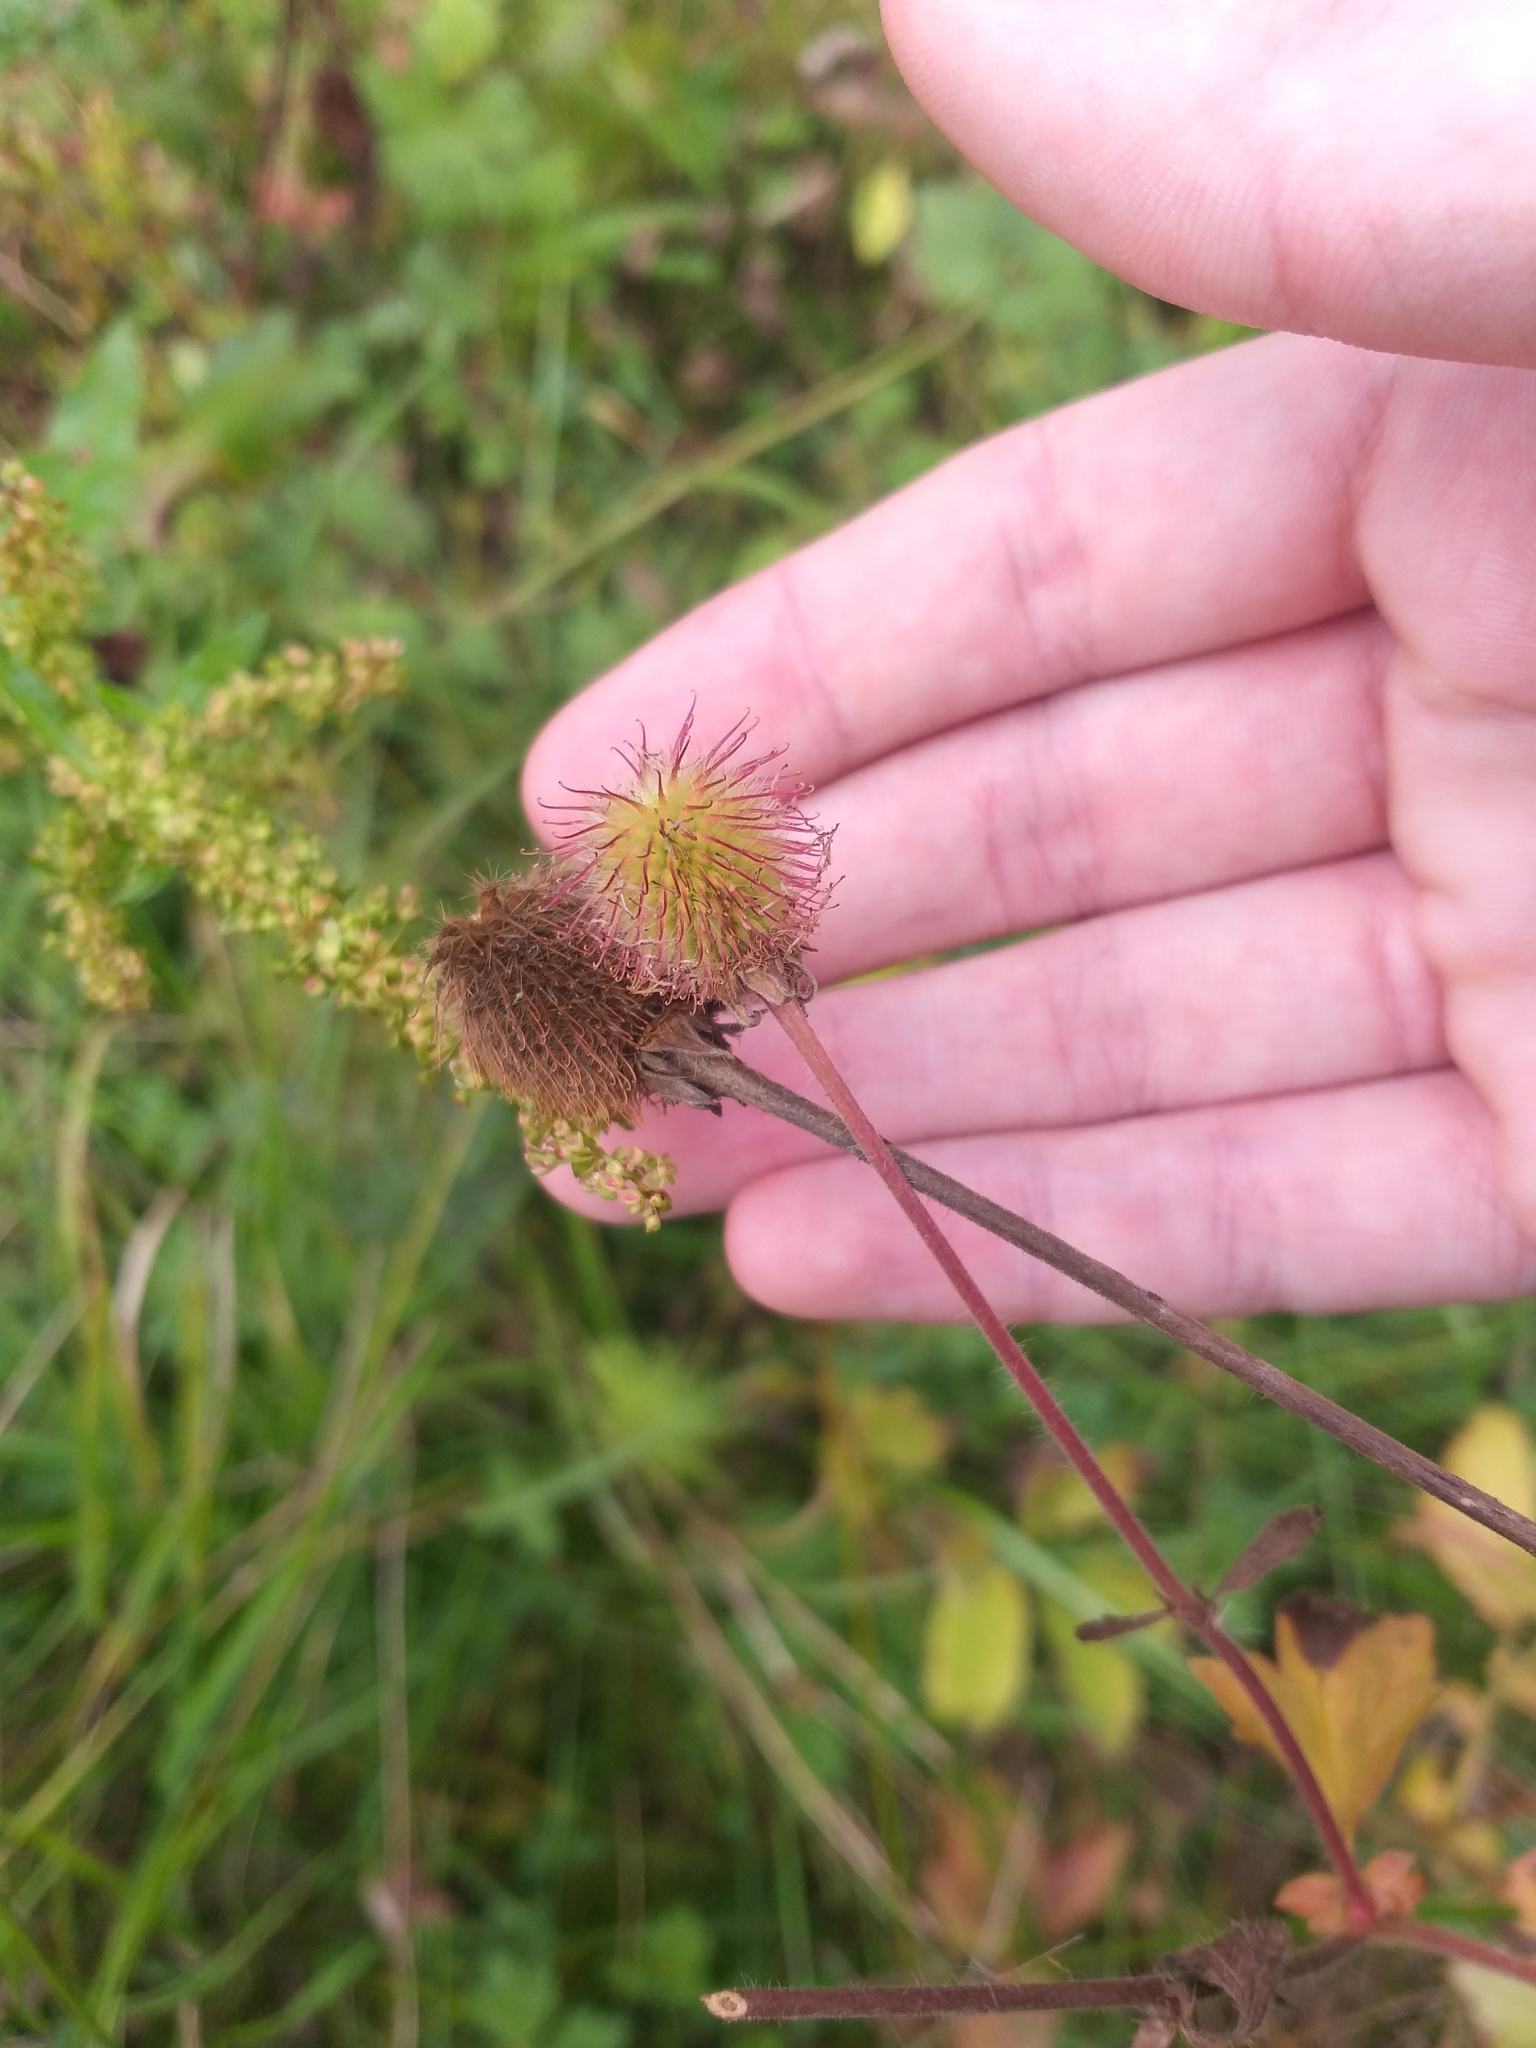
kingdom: Plantae
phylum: Tracheophyta
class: Magnoliopsida
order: Rosales
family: Rosaceae
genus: Geum
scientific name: Geum aleppicum
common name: Yellow avens
